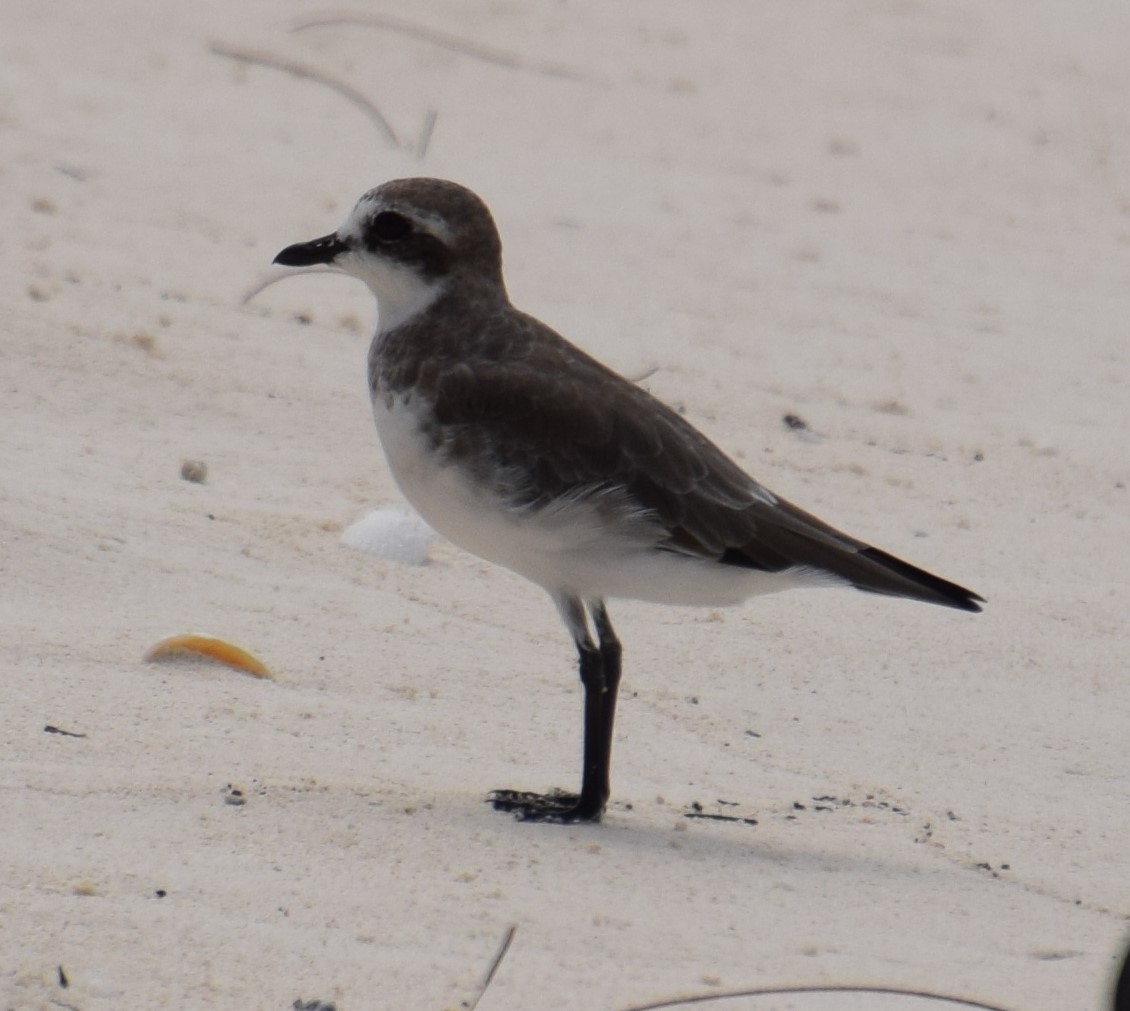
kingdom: Animalia
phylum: Chordata
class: Aves
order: Charadriiformes
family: Charadriidae
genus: Anarhynchus
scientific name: Anarhynchus
